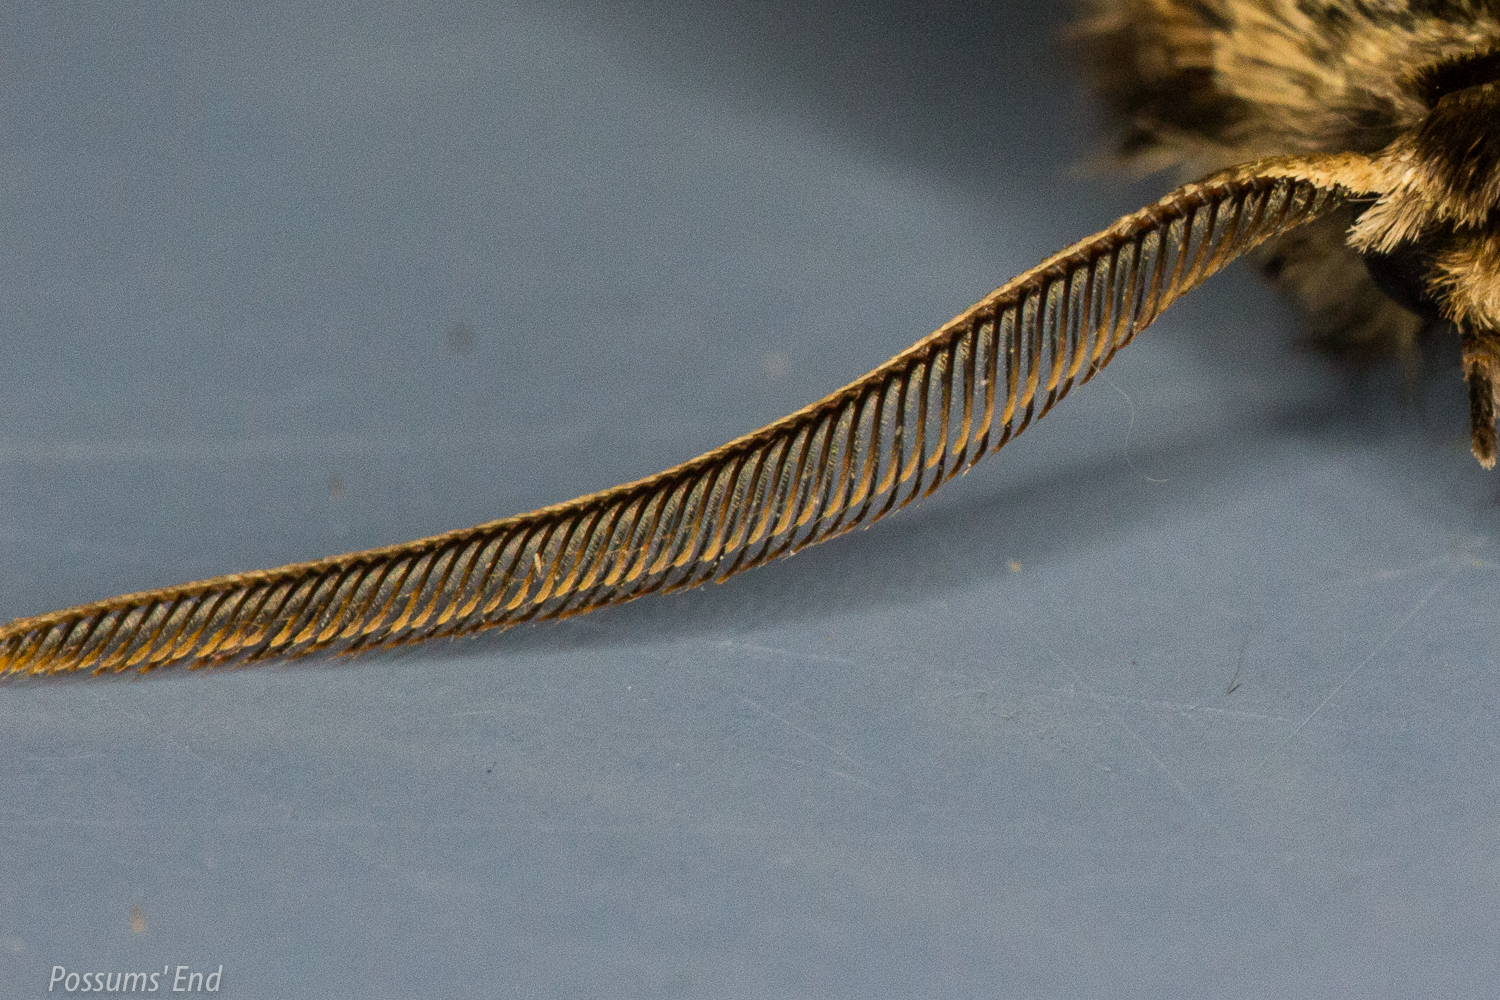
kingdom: Animalia
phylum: Arthropoda
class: Insecta
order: Lepidoptera
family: Geometridae
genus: Declana
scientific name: Declana
